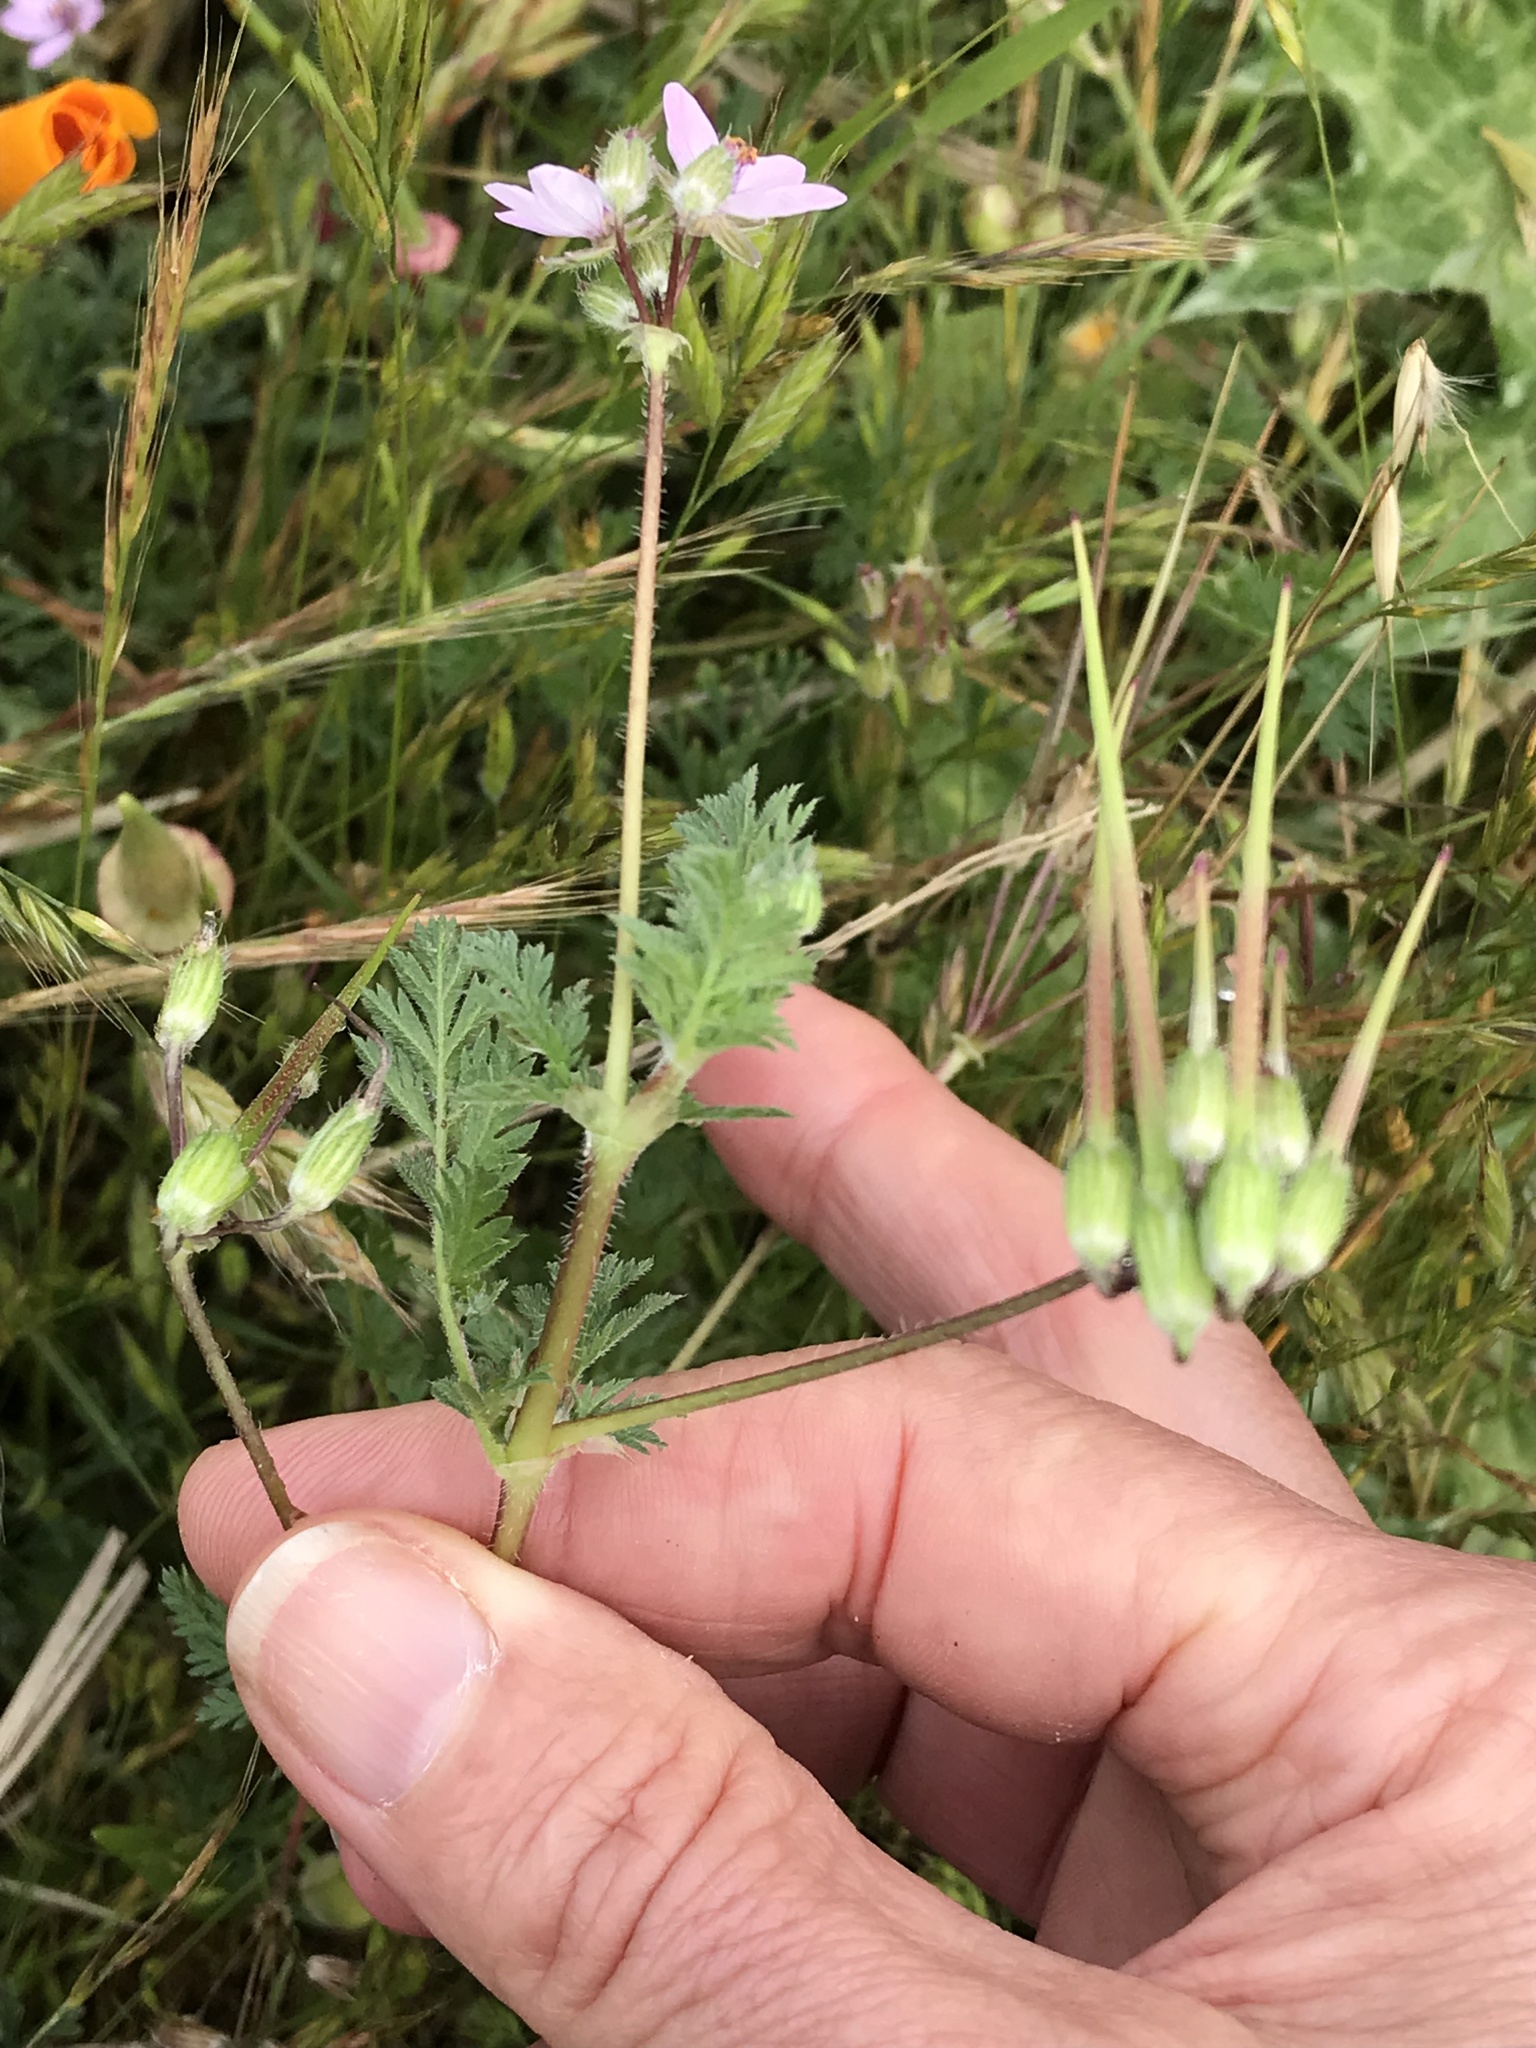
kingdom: Plantae
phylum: Tracheophyta
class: Magnoliopsida
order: Geraniales
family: Geraniaceae
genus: Erodium
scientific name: Erodium cicutarium
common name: Common stork's-bill
